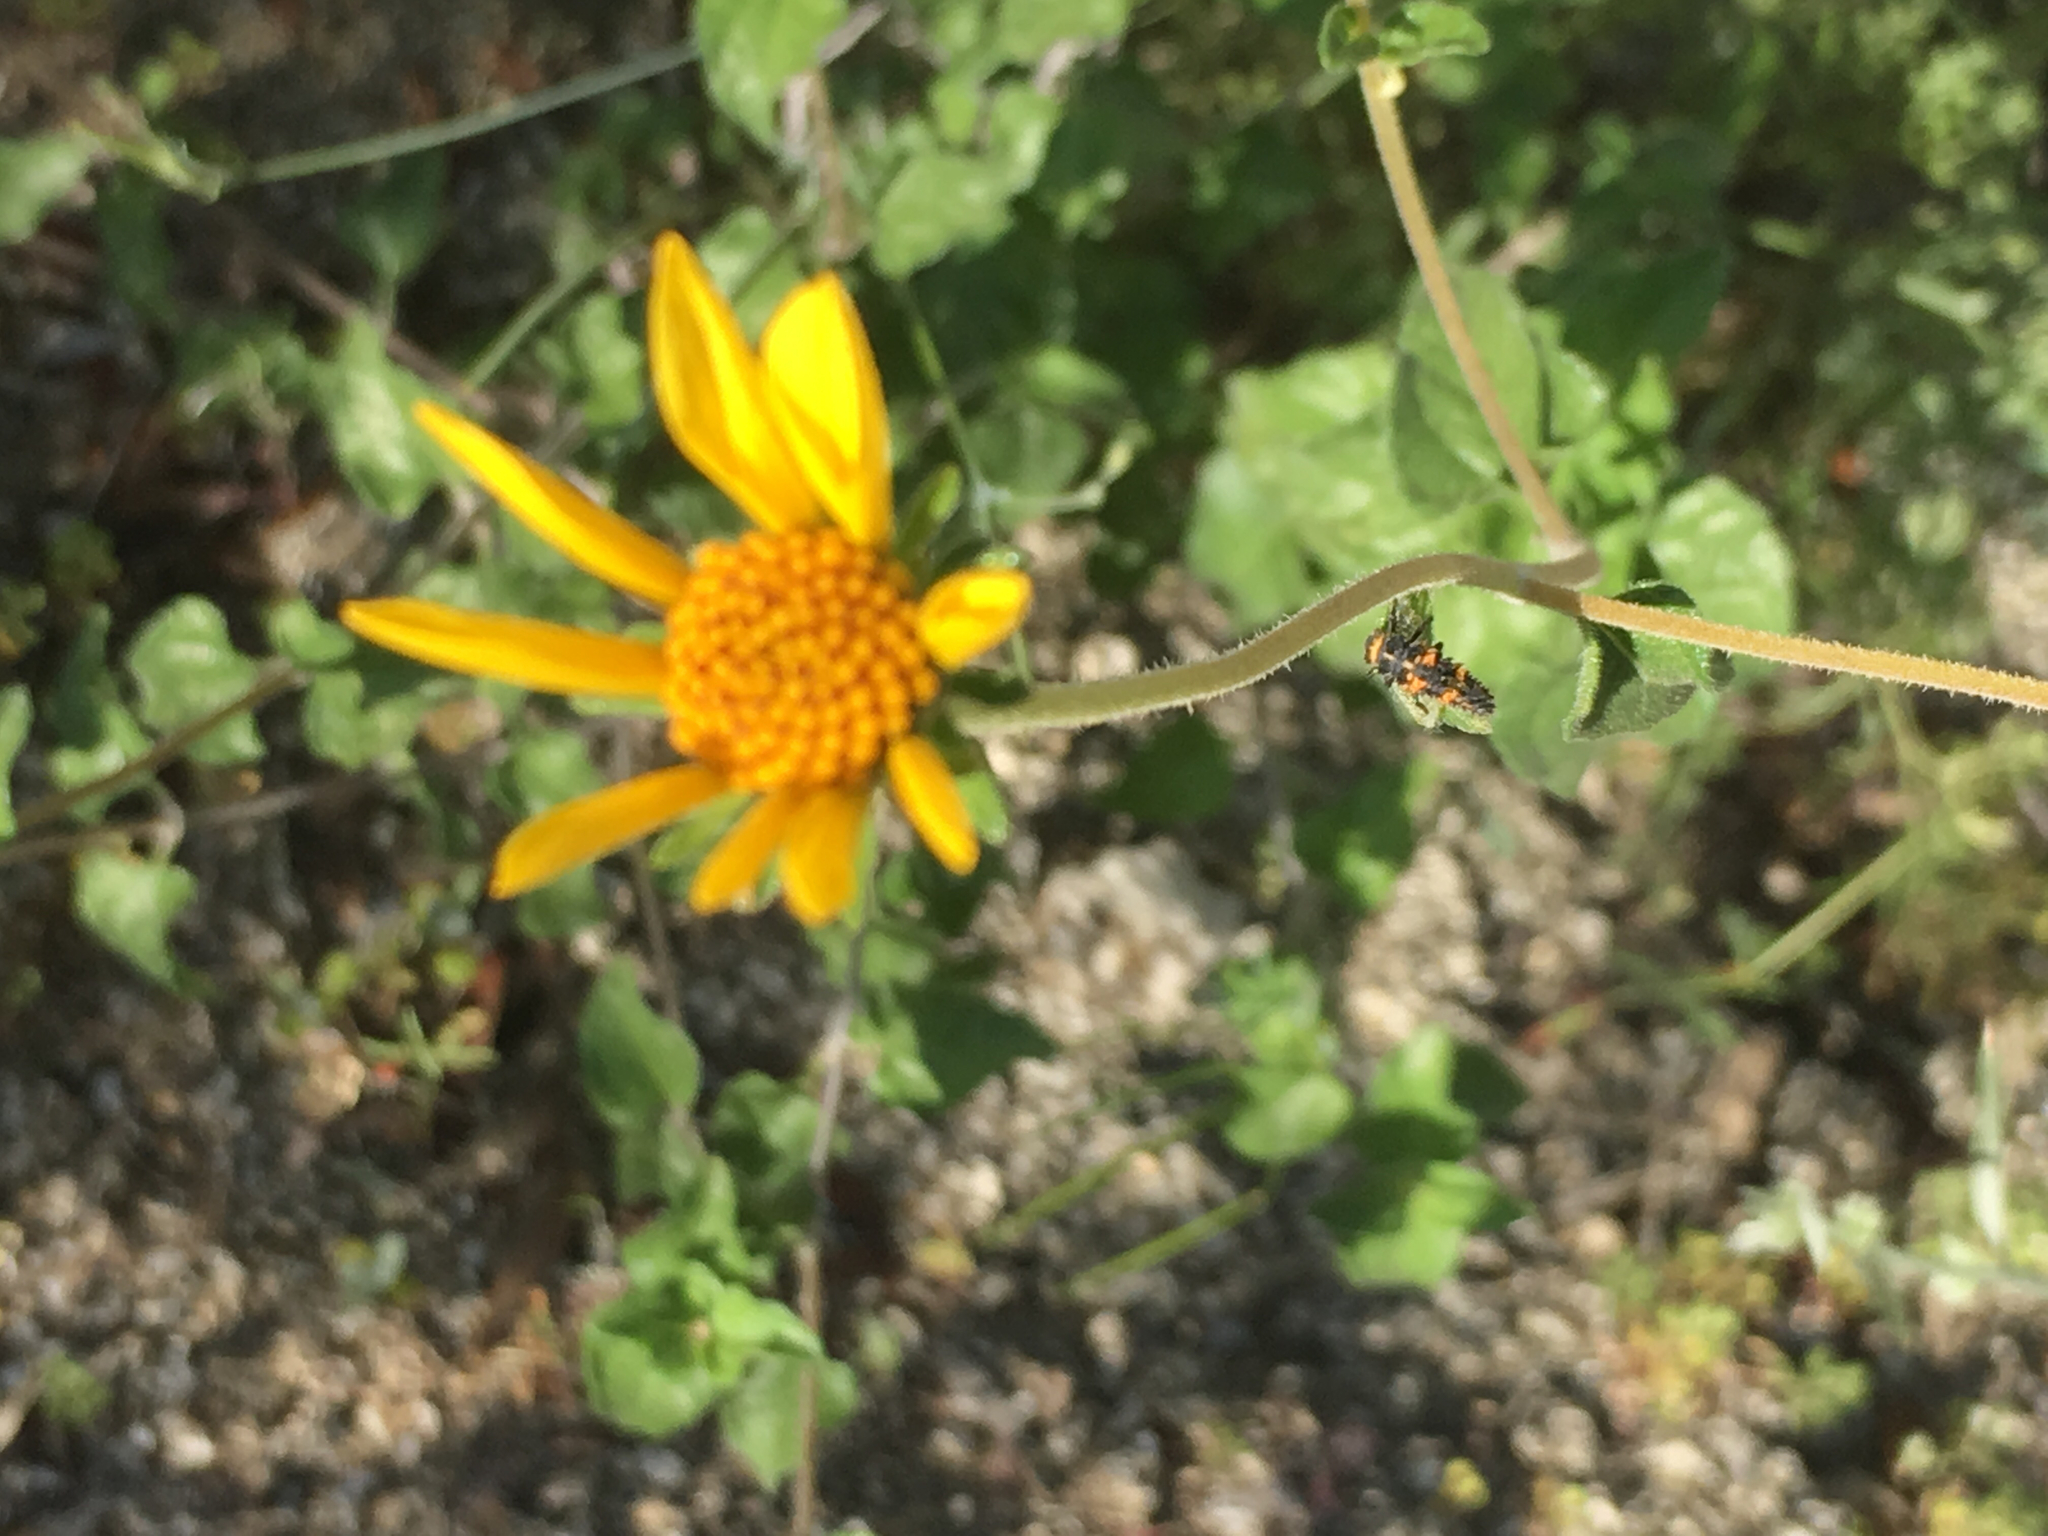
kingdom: Plantae
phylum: Tracheophyta
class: Magnoliopsida
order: Asterales
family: Asteraceae
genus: Bahiopsis
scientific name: Bahiopsis parishii
